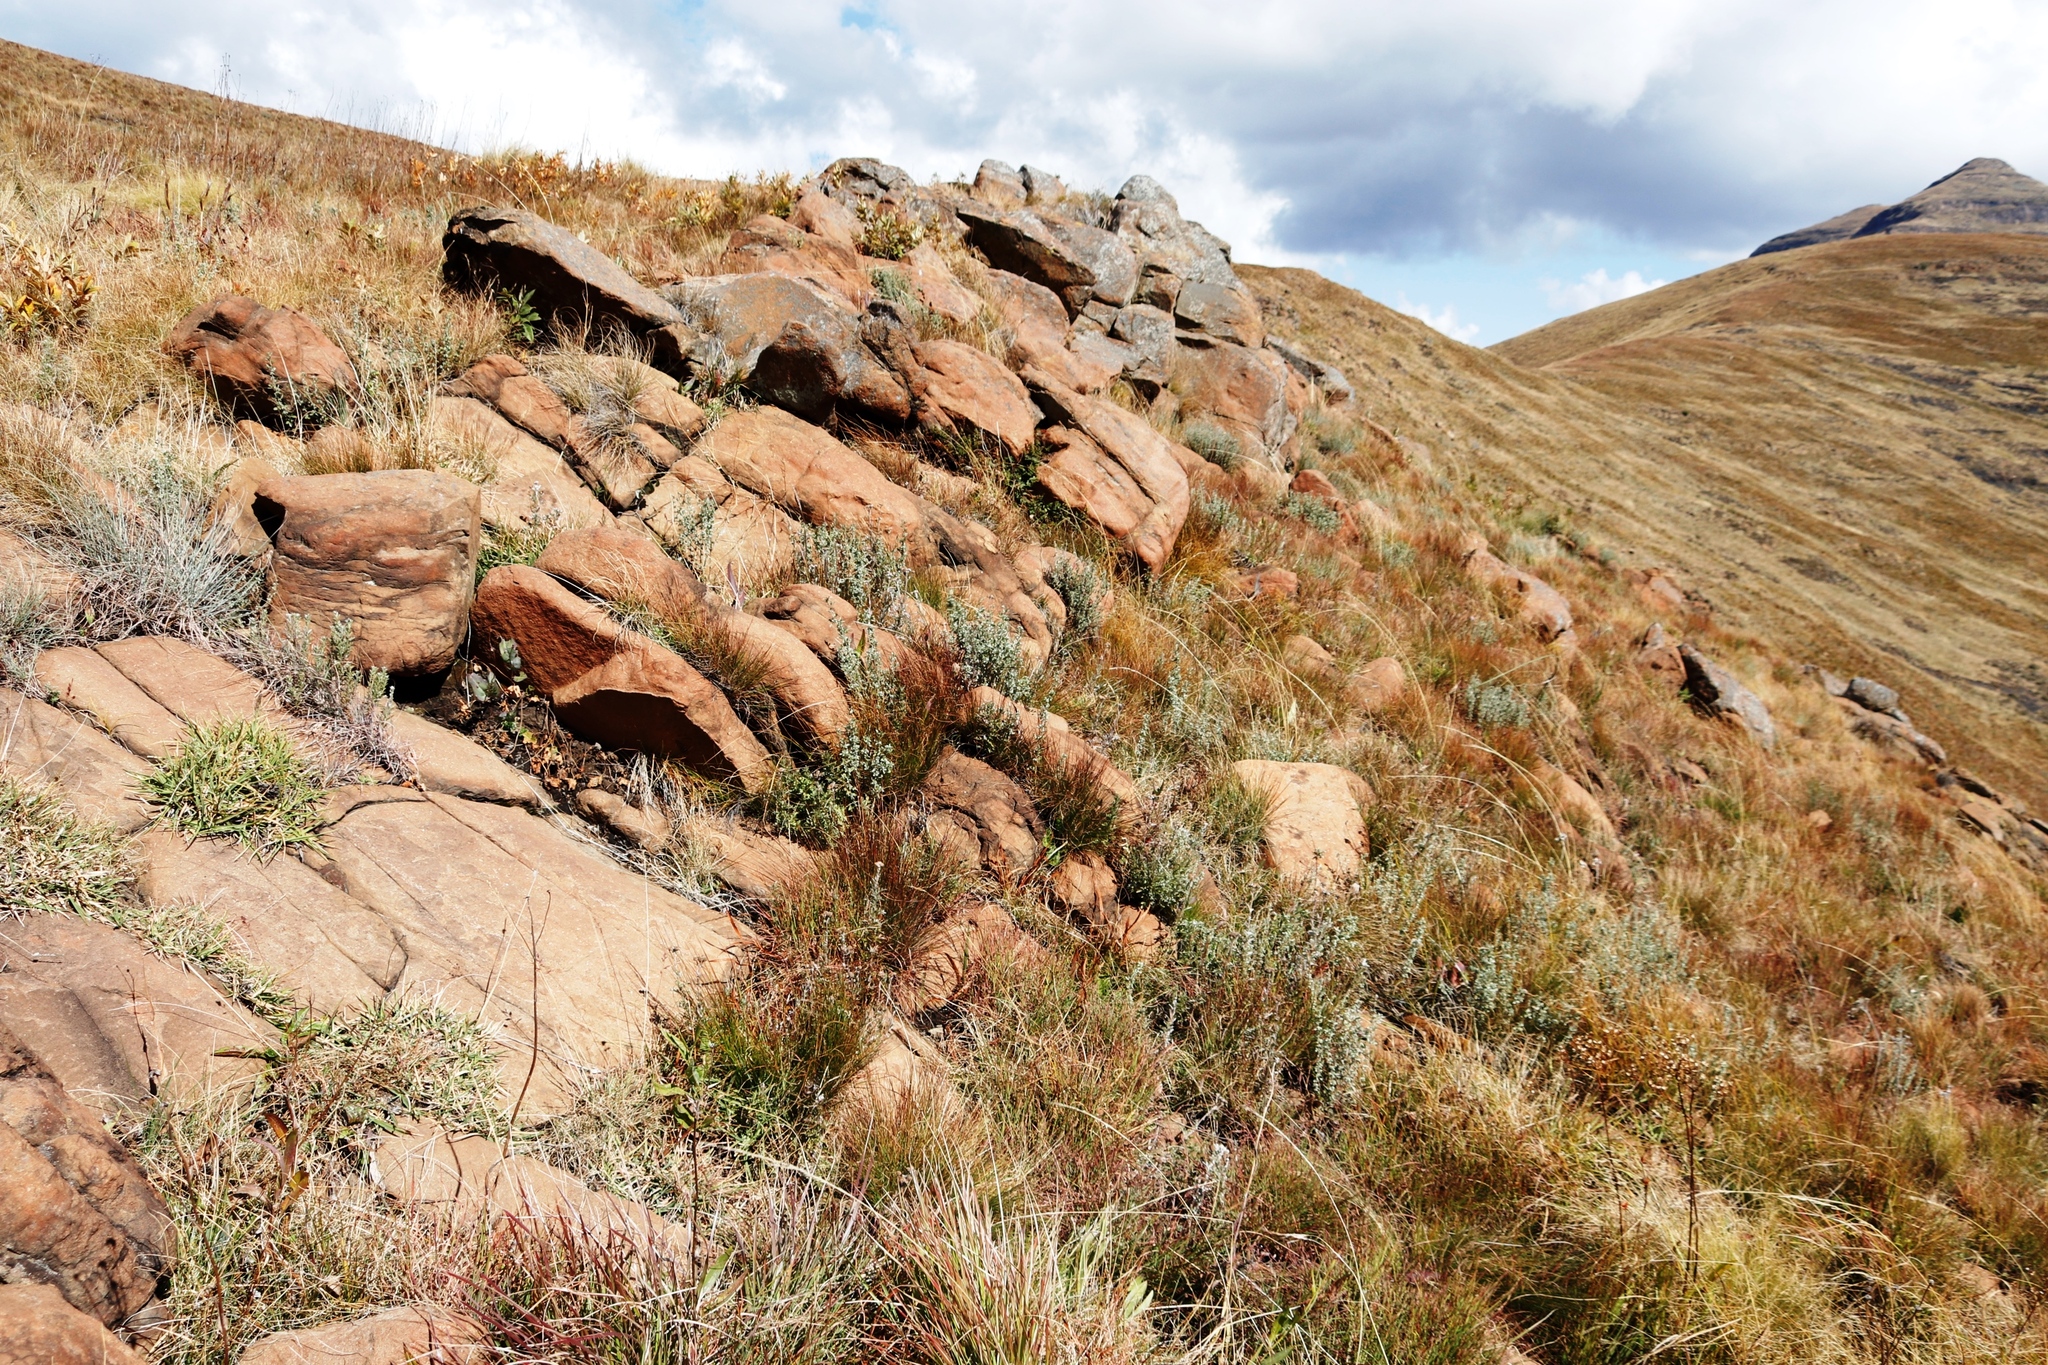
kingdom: Plantae
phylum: Tracheophyta
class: Magnoliopsida
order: Fabales
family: Fabaceae
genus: Lotononis
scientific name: Lotononis sericophylla
